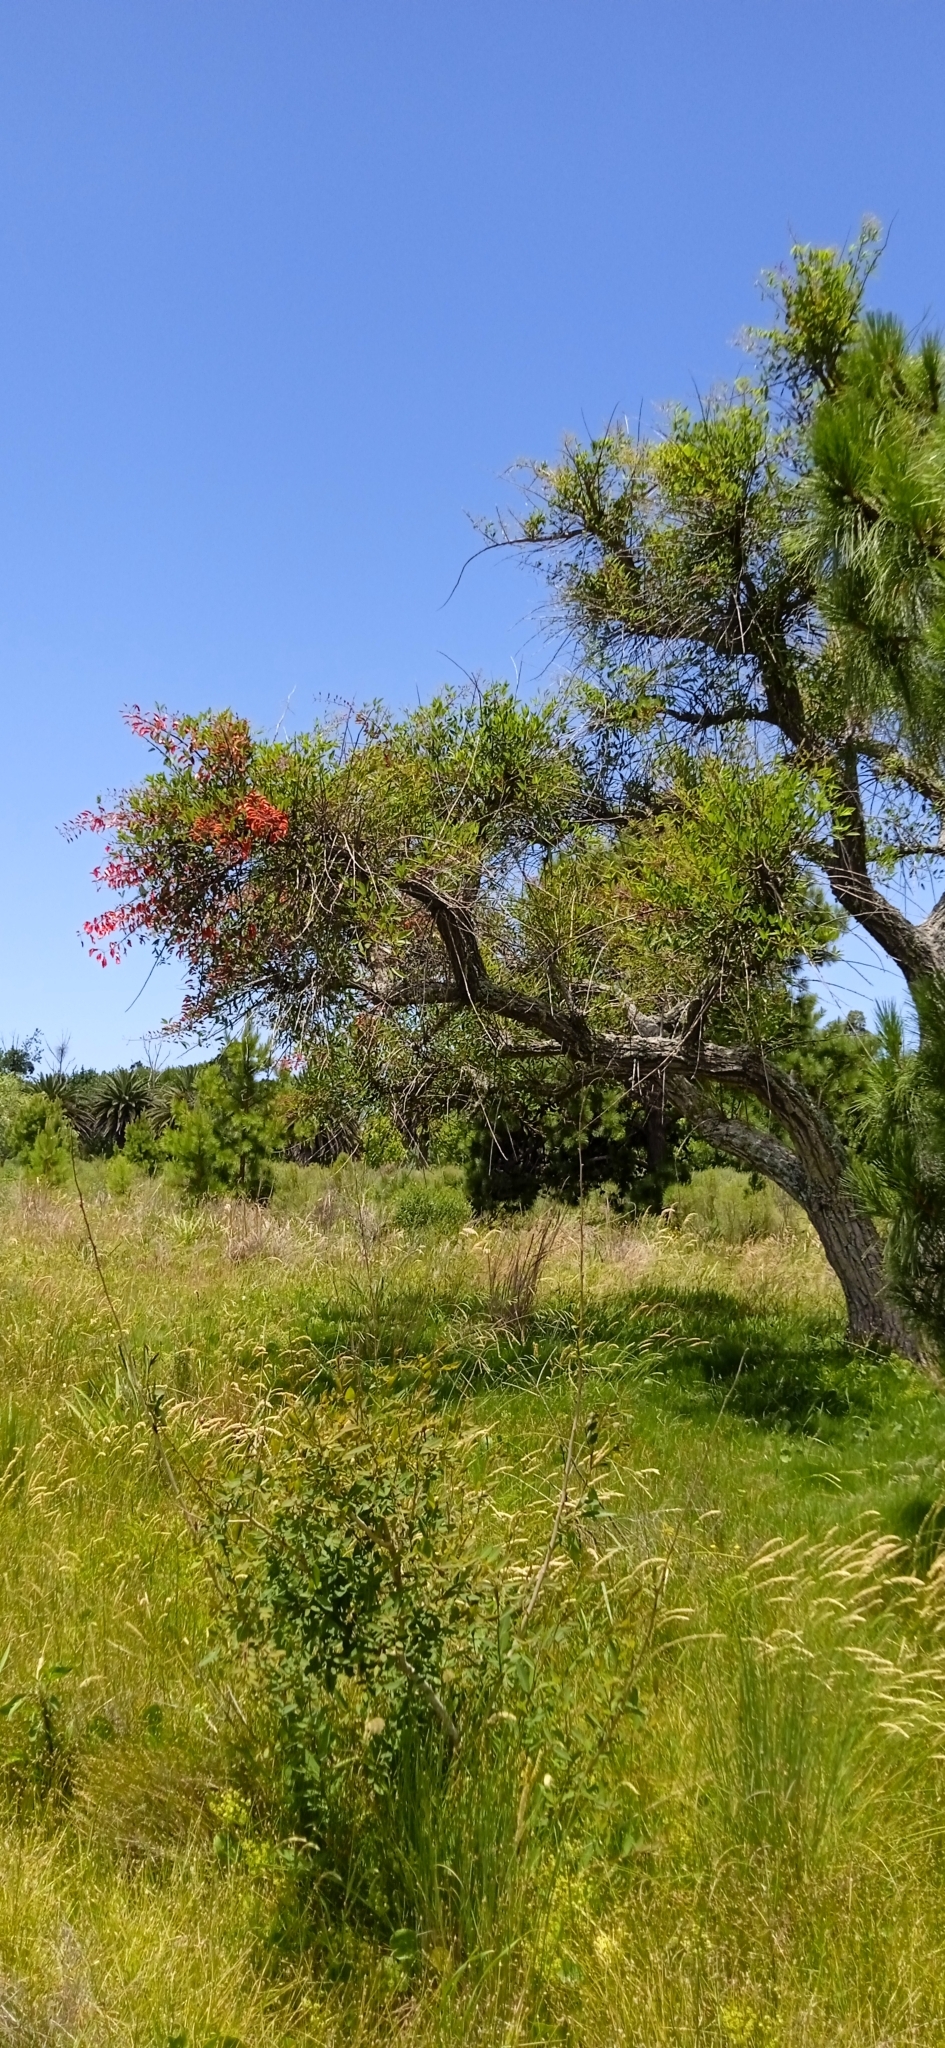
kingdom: Plantae
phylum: Tracheophyta
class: Magnoliopsida
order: Fabales
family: Fabaceae
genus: Erythrina
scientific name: Erythrina crista-galli
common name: Cockspur coral tree
